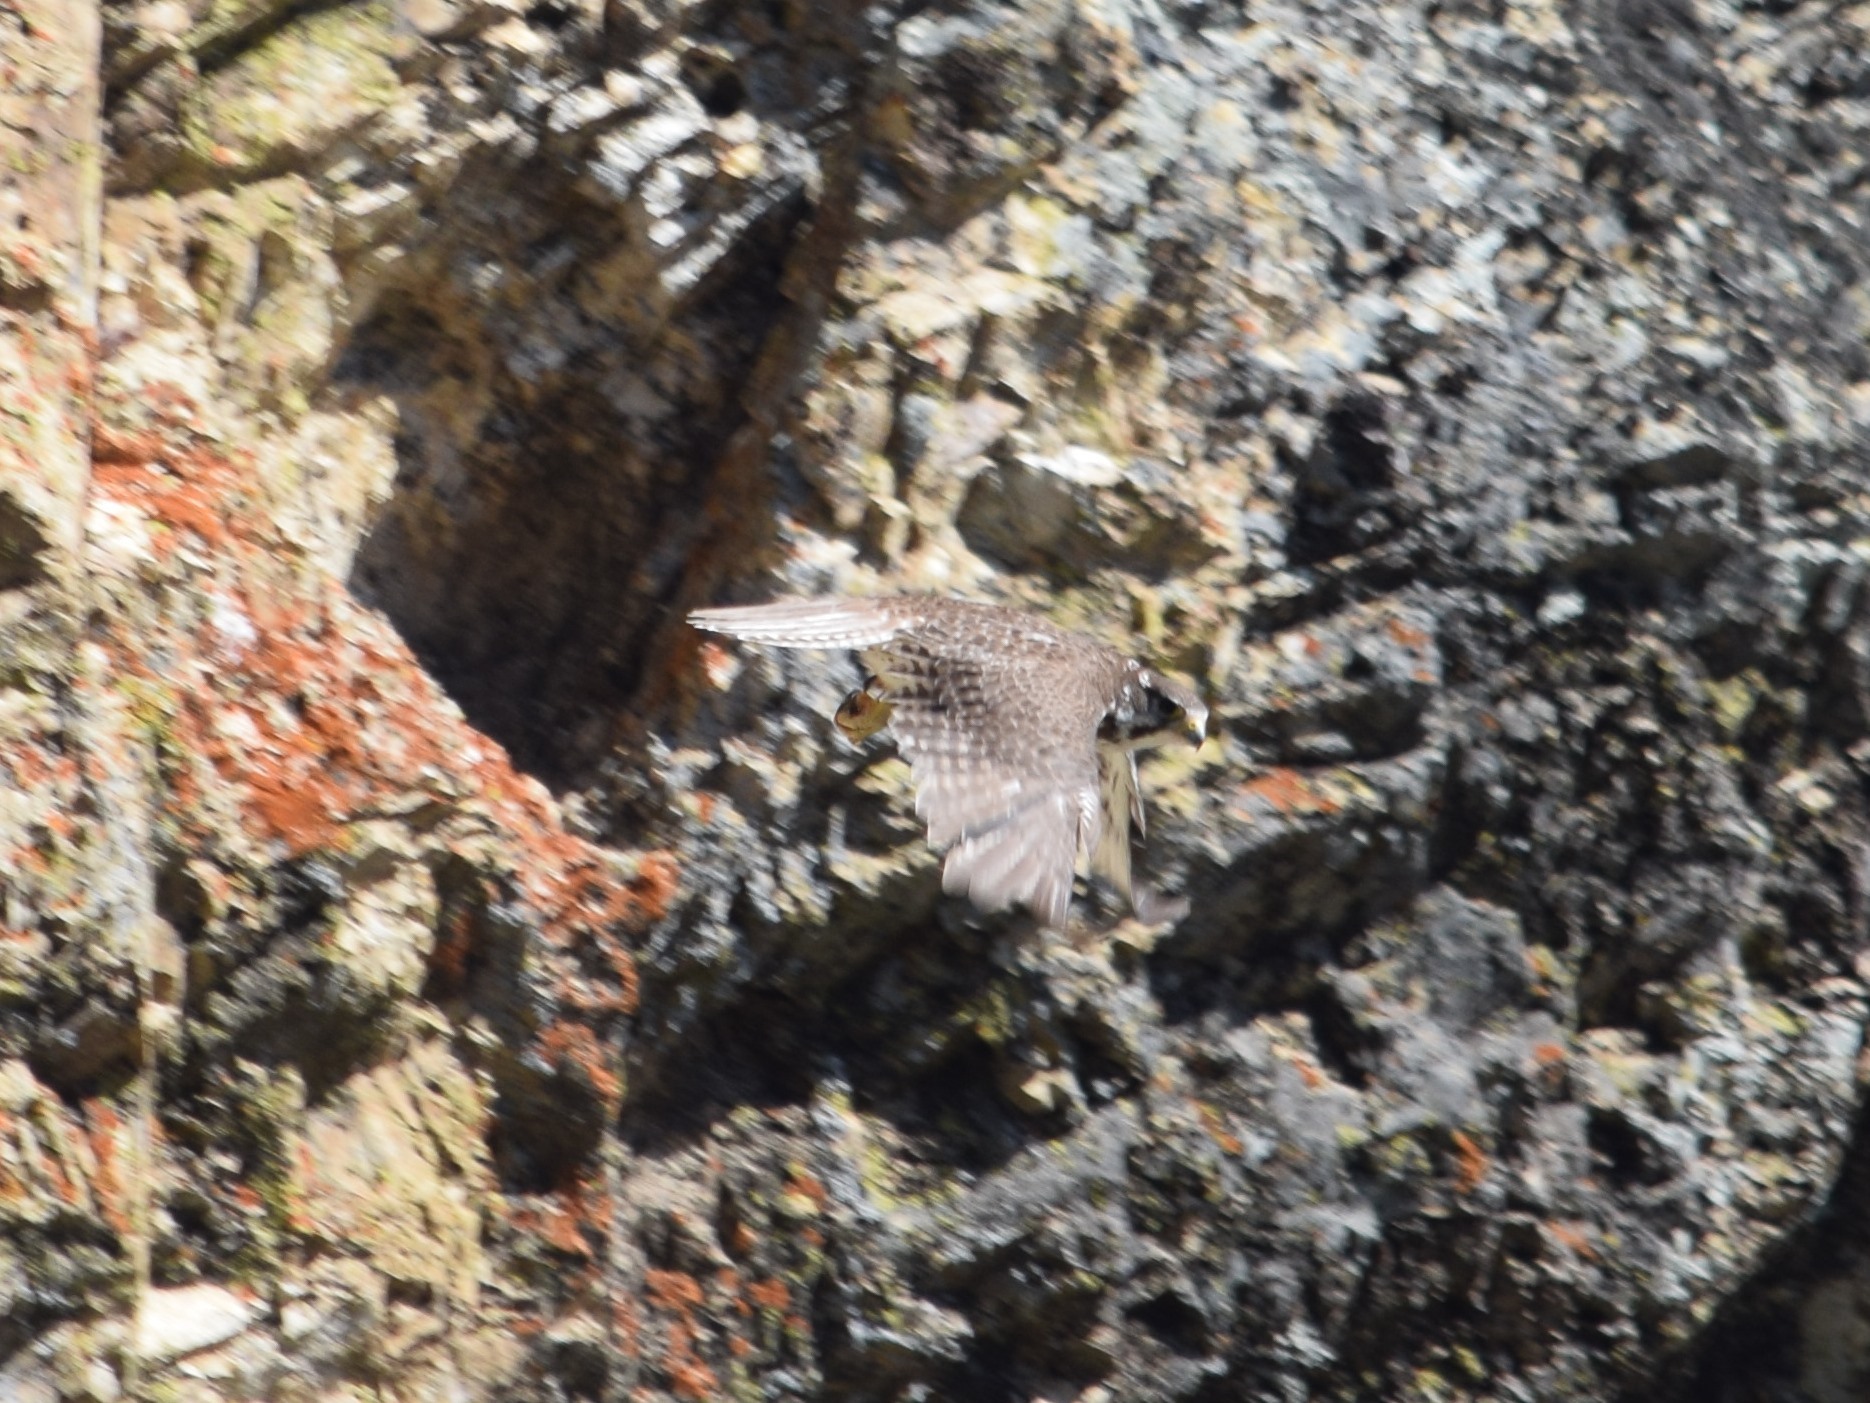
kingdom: Animalia
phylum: Chordata
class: Aves
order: Falconiformes
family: Falconidae
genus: Falco
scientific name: Falco mexicanus
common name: Prairie falcon
